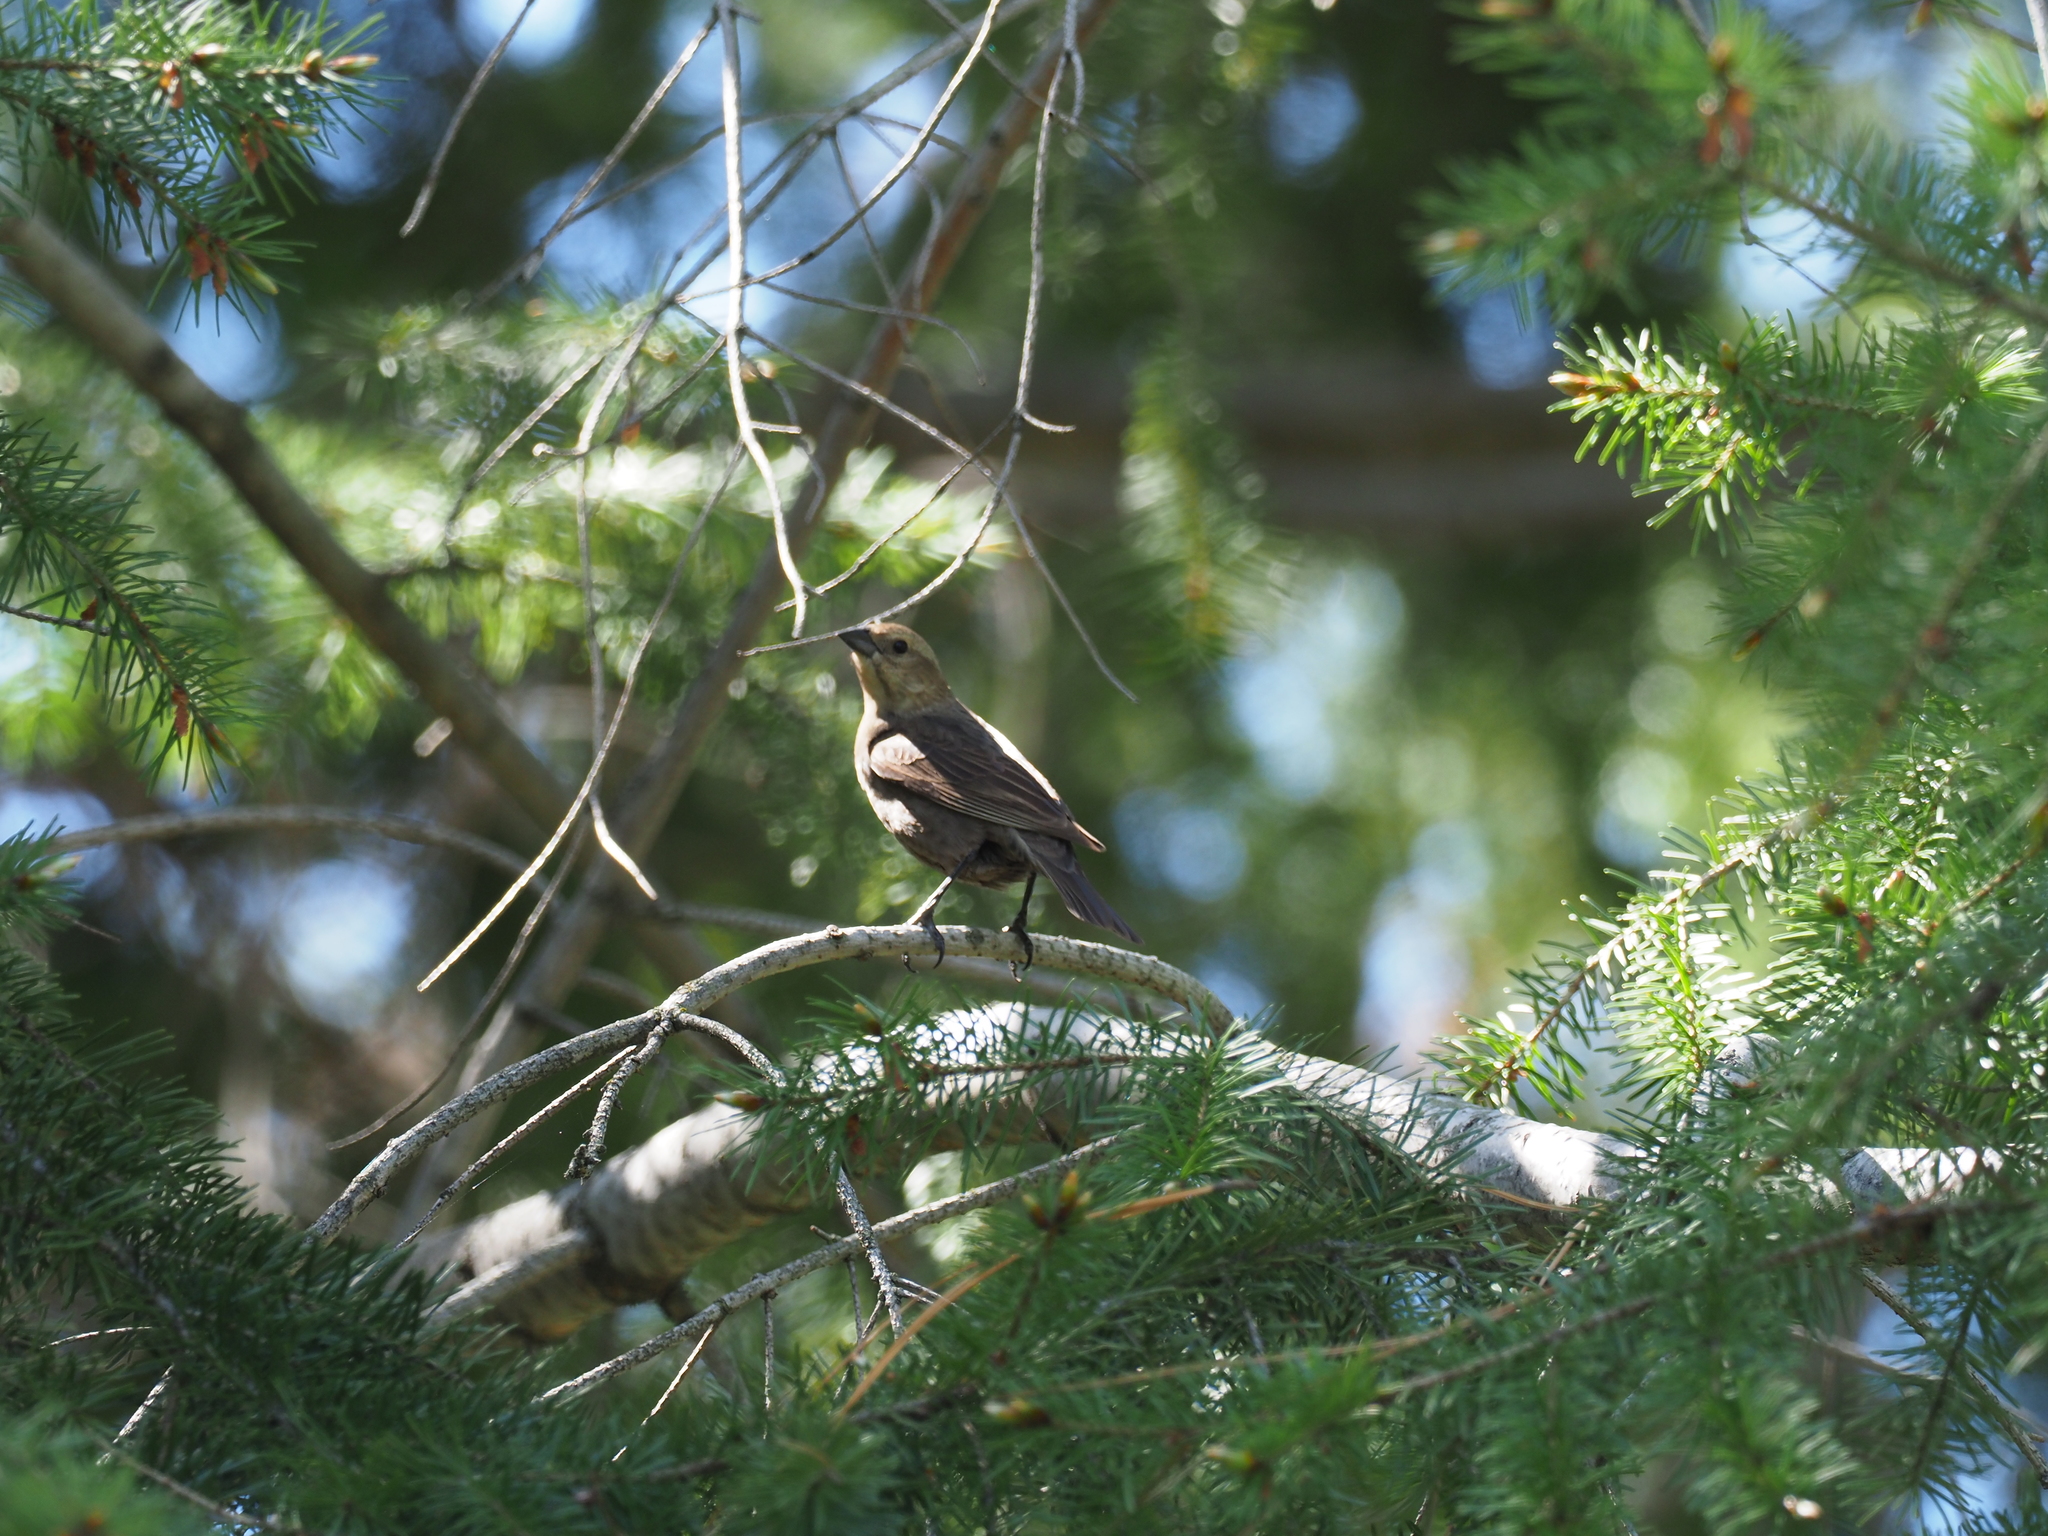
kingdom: Animalia
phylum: Chordata
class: Aves
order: Passeriformes
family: Icteridae
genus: Molothrus
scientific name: Molothrus ater
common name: Brown-headed cowbird
